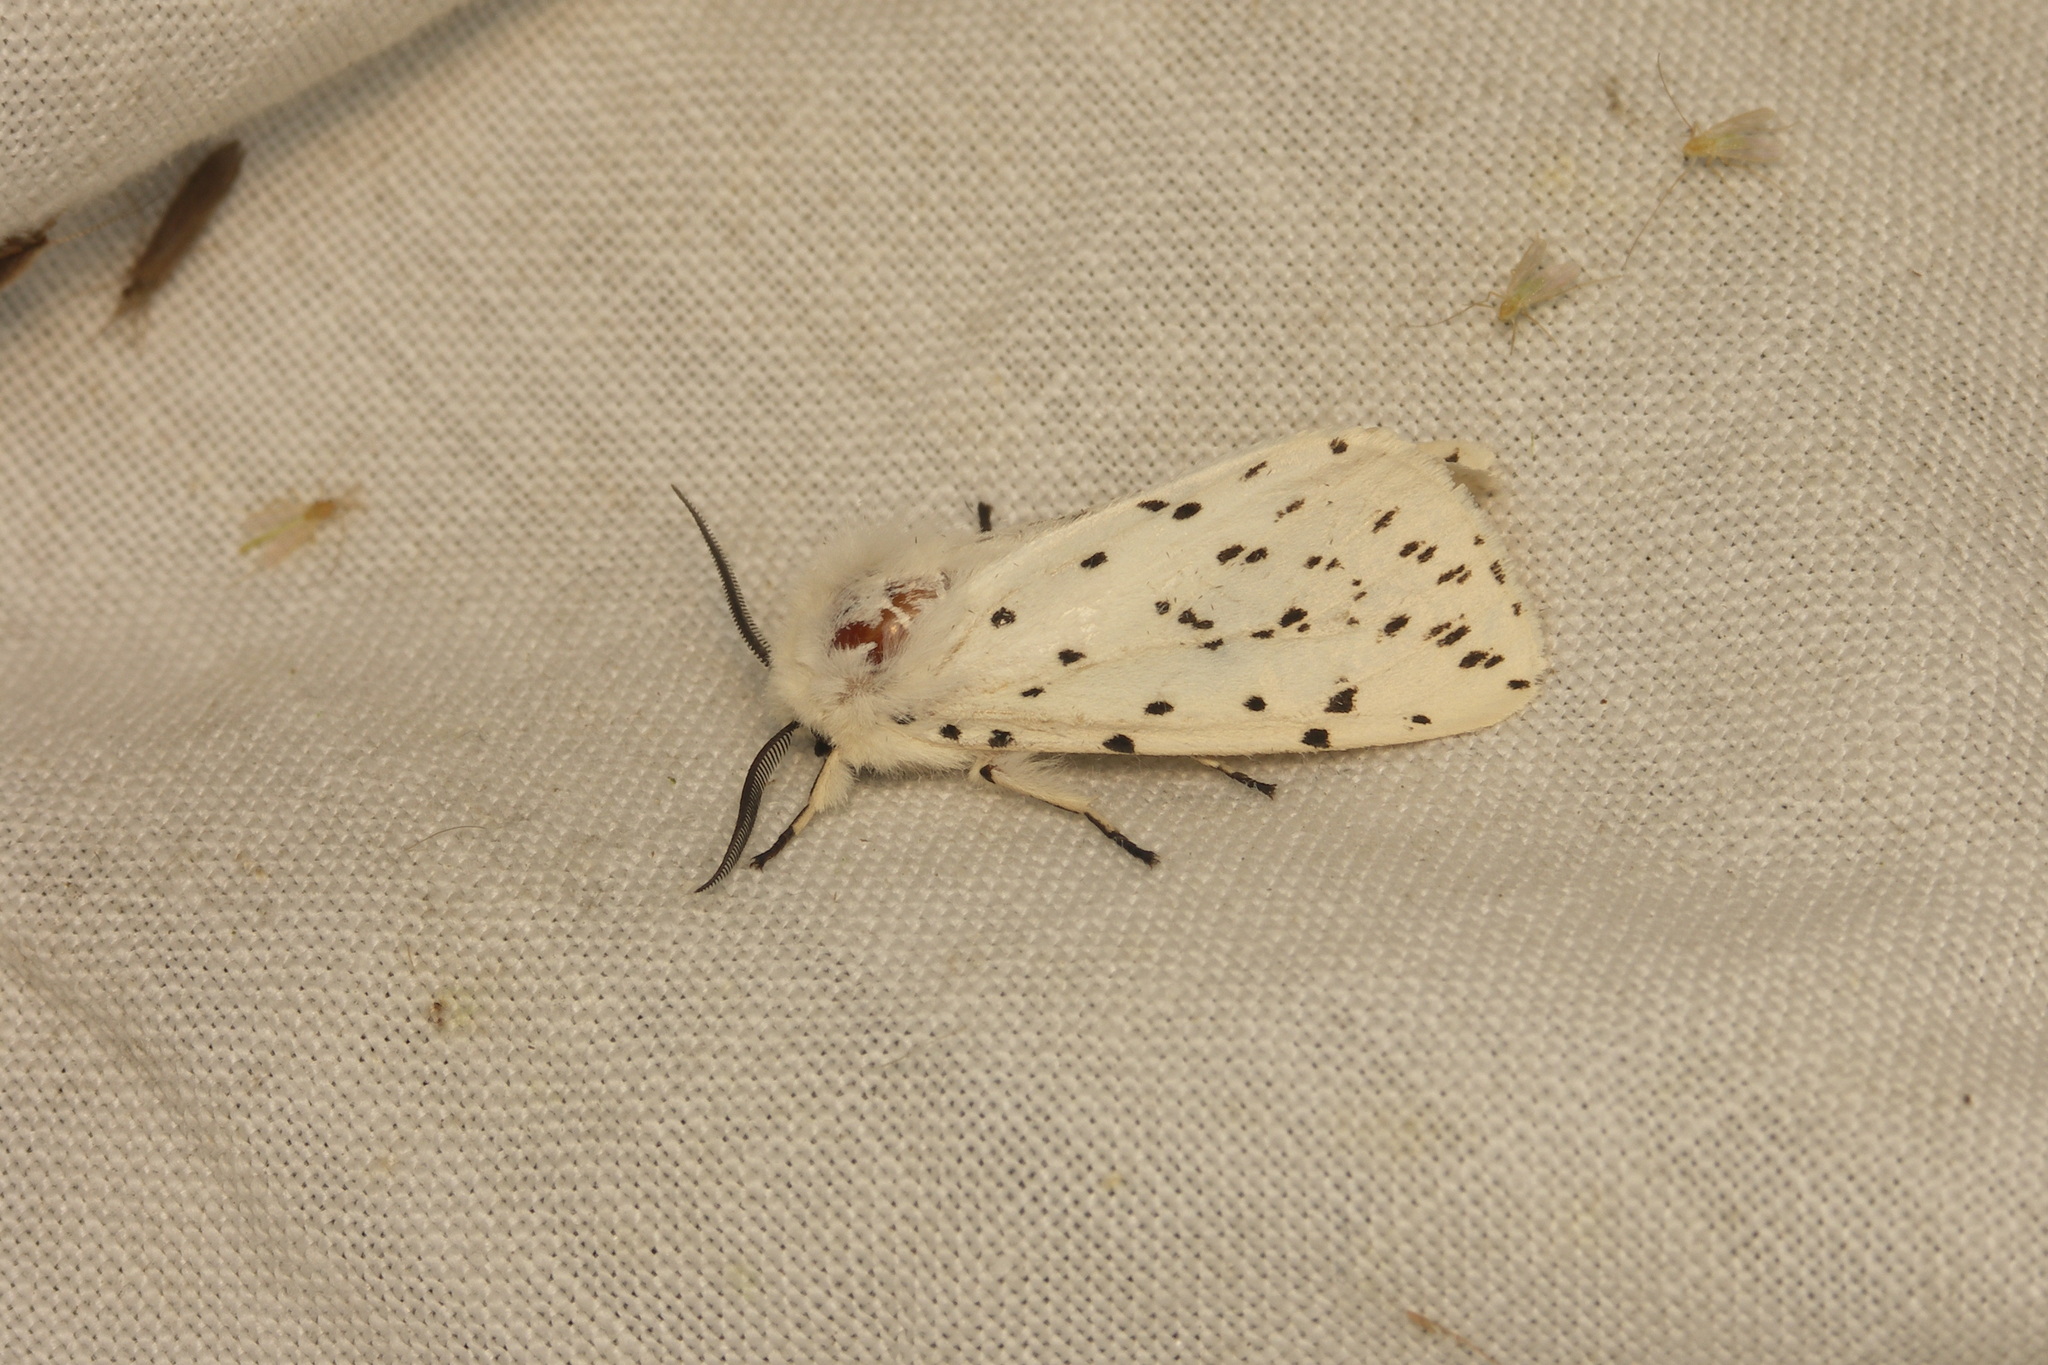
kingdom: Animalia
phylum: Arthropoda
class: Insecta
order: Lepidoptera
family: Erebidae
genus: Spilosoma
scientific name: Spilosoma lubricipeda
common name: White ermine
